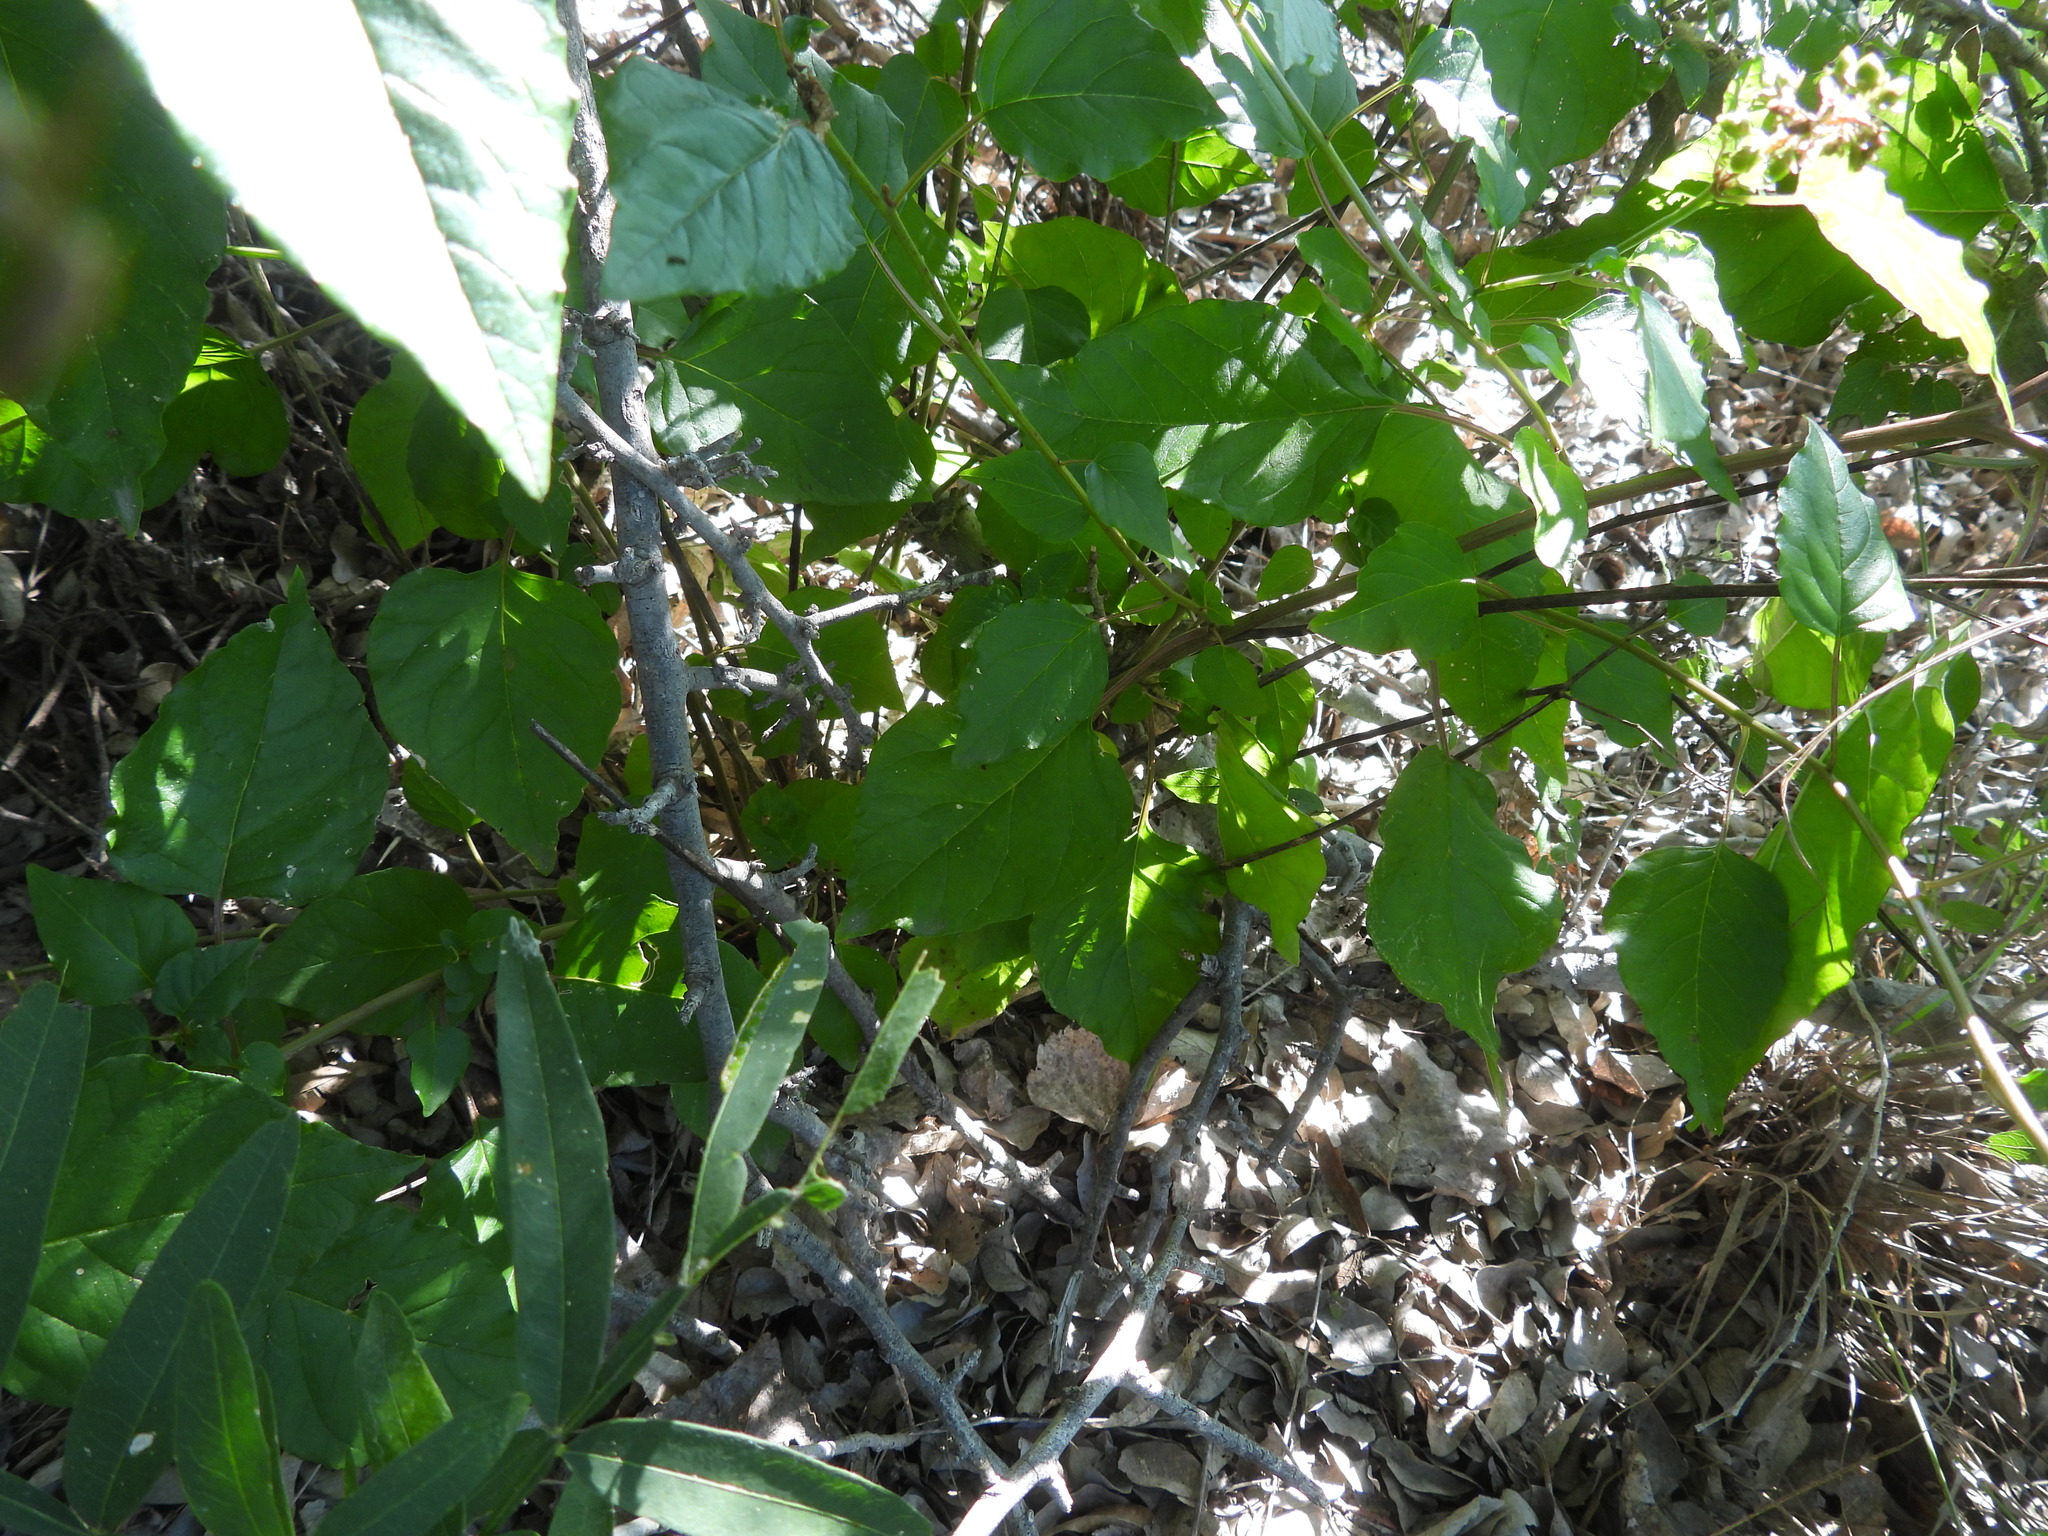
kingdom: Plantae
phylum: Tracheophyta
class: Magnoliopsida
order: Caryophyllales
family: Phytolaccaceae
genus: Rivina
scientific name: Rivina humilis
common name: Rougeplant
